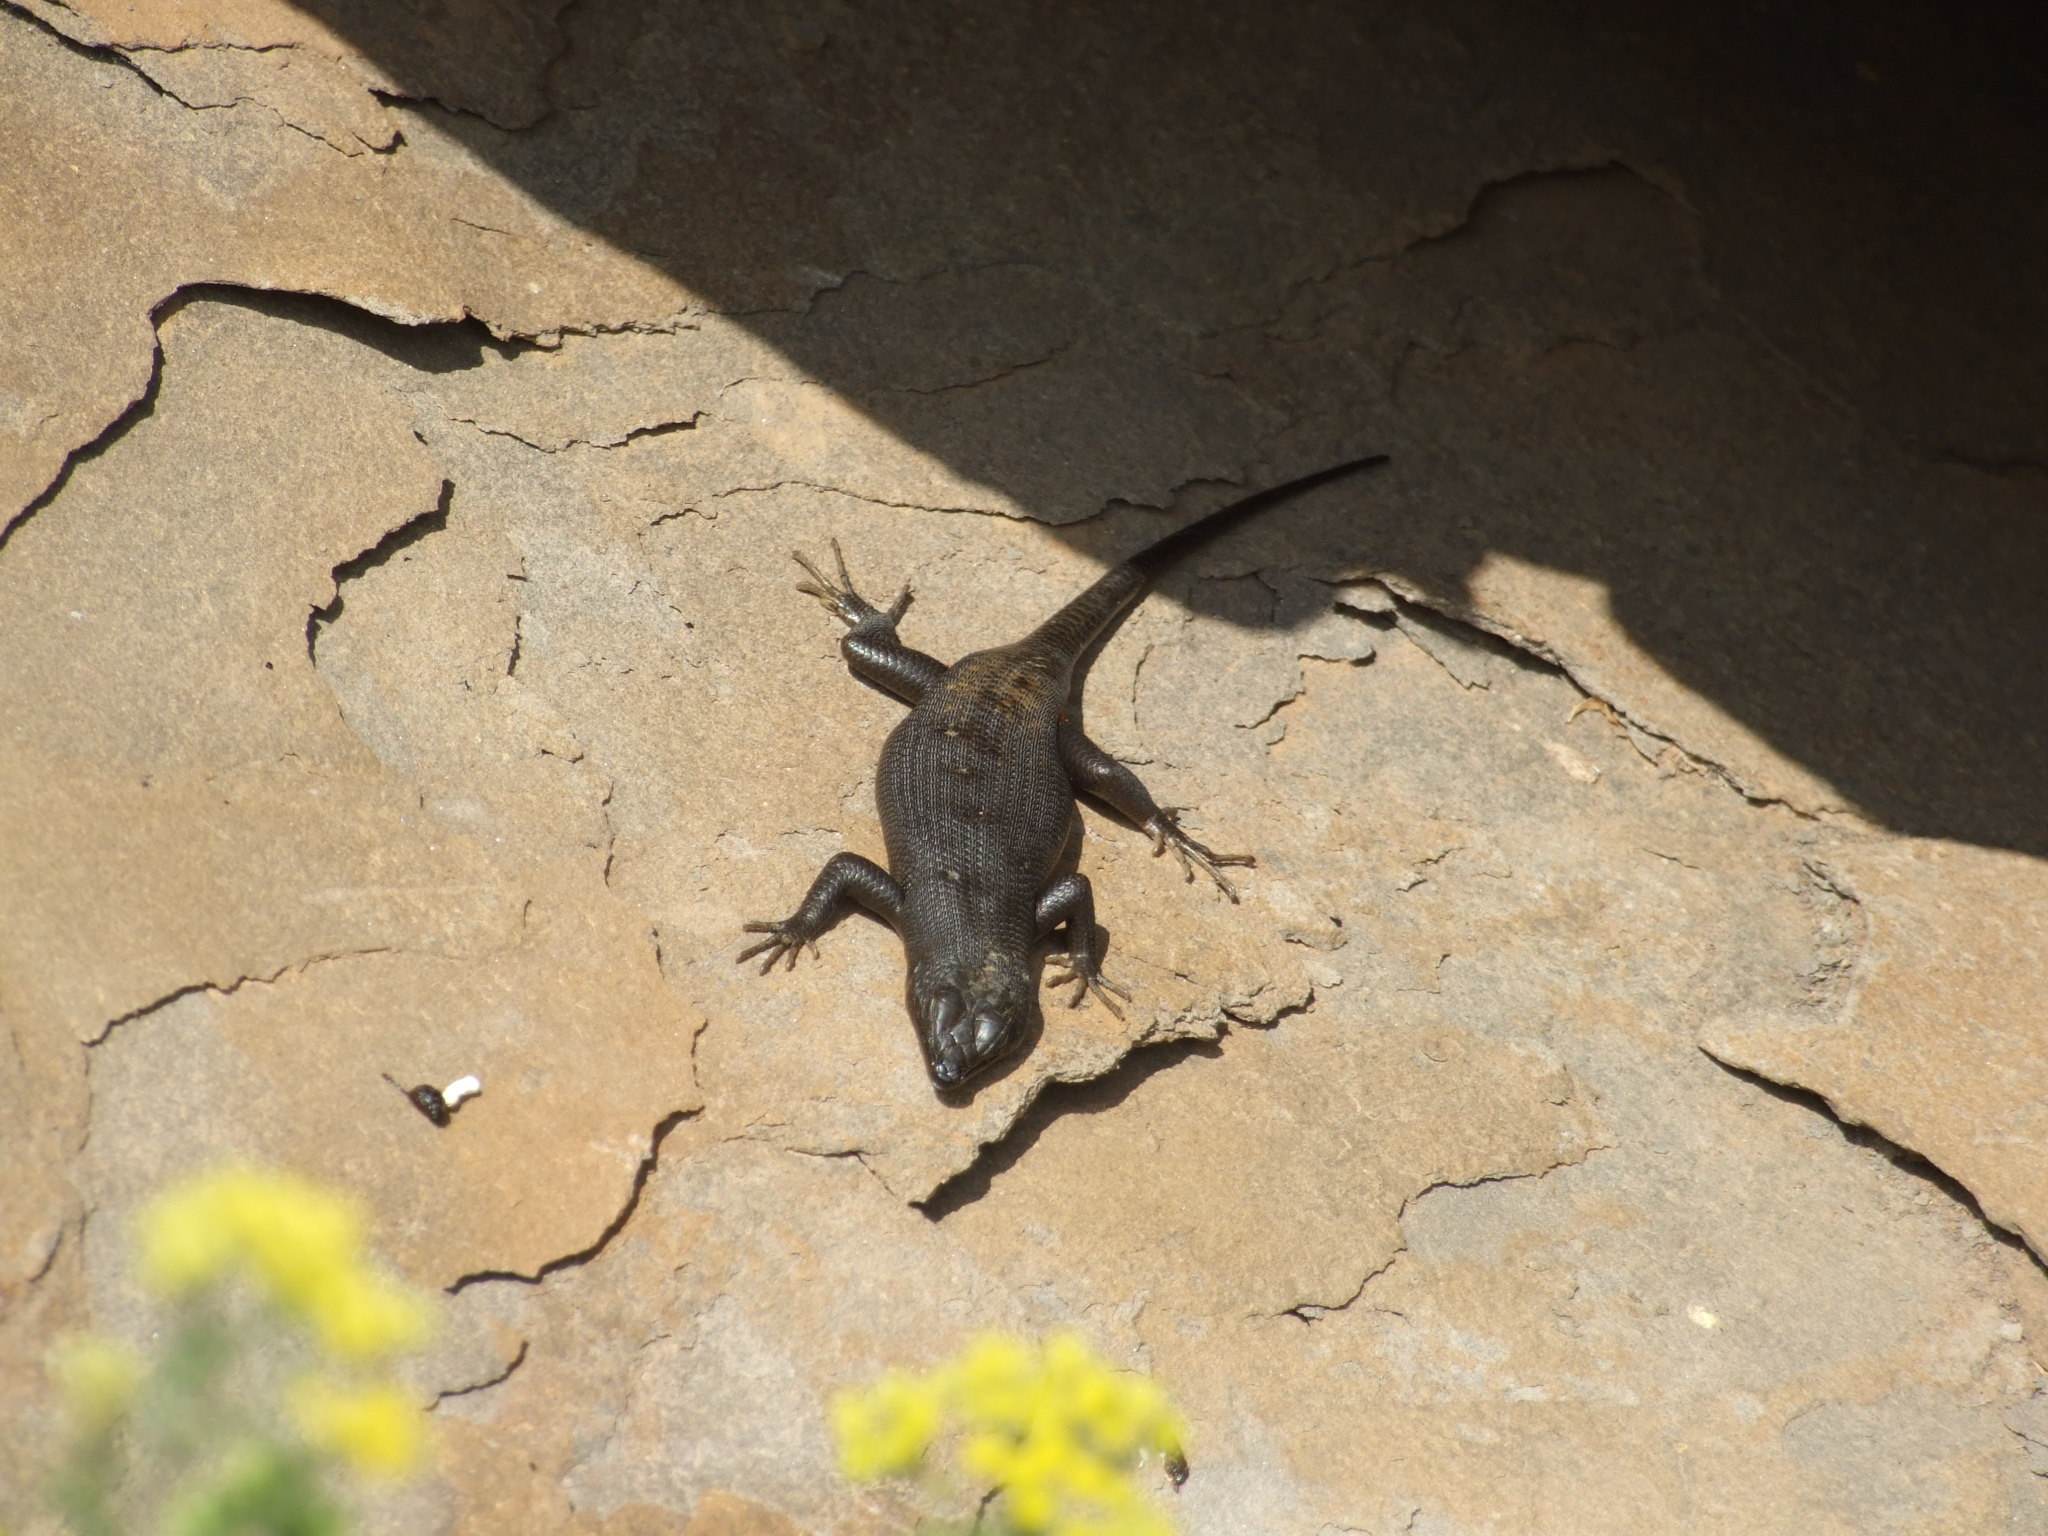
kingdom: Animalia
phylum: Chordata
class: Squamata
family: Scincidae
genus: Trachylepis
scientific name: Trachylepis sulcata
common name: Western rock skink
